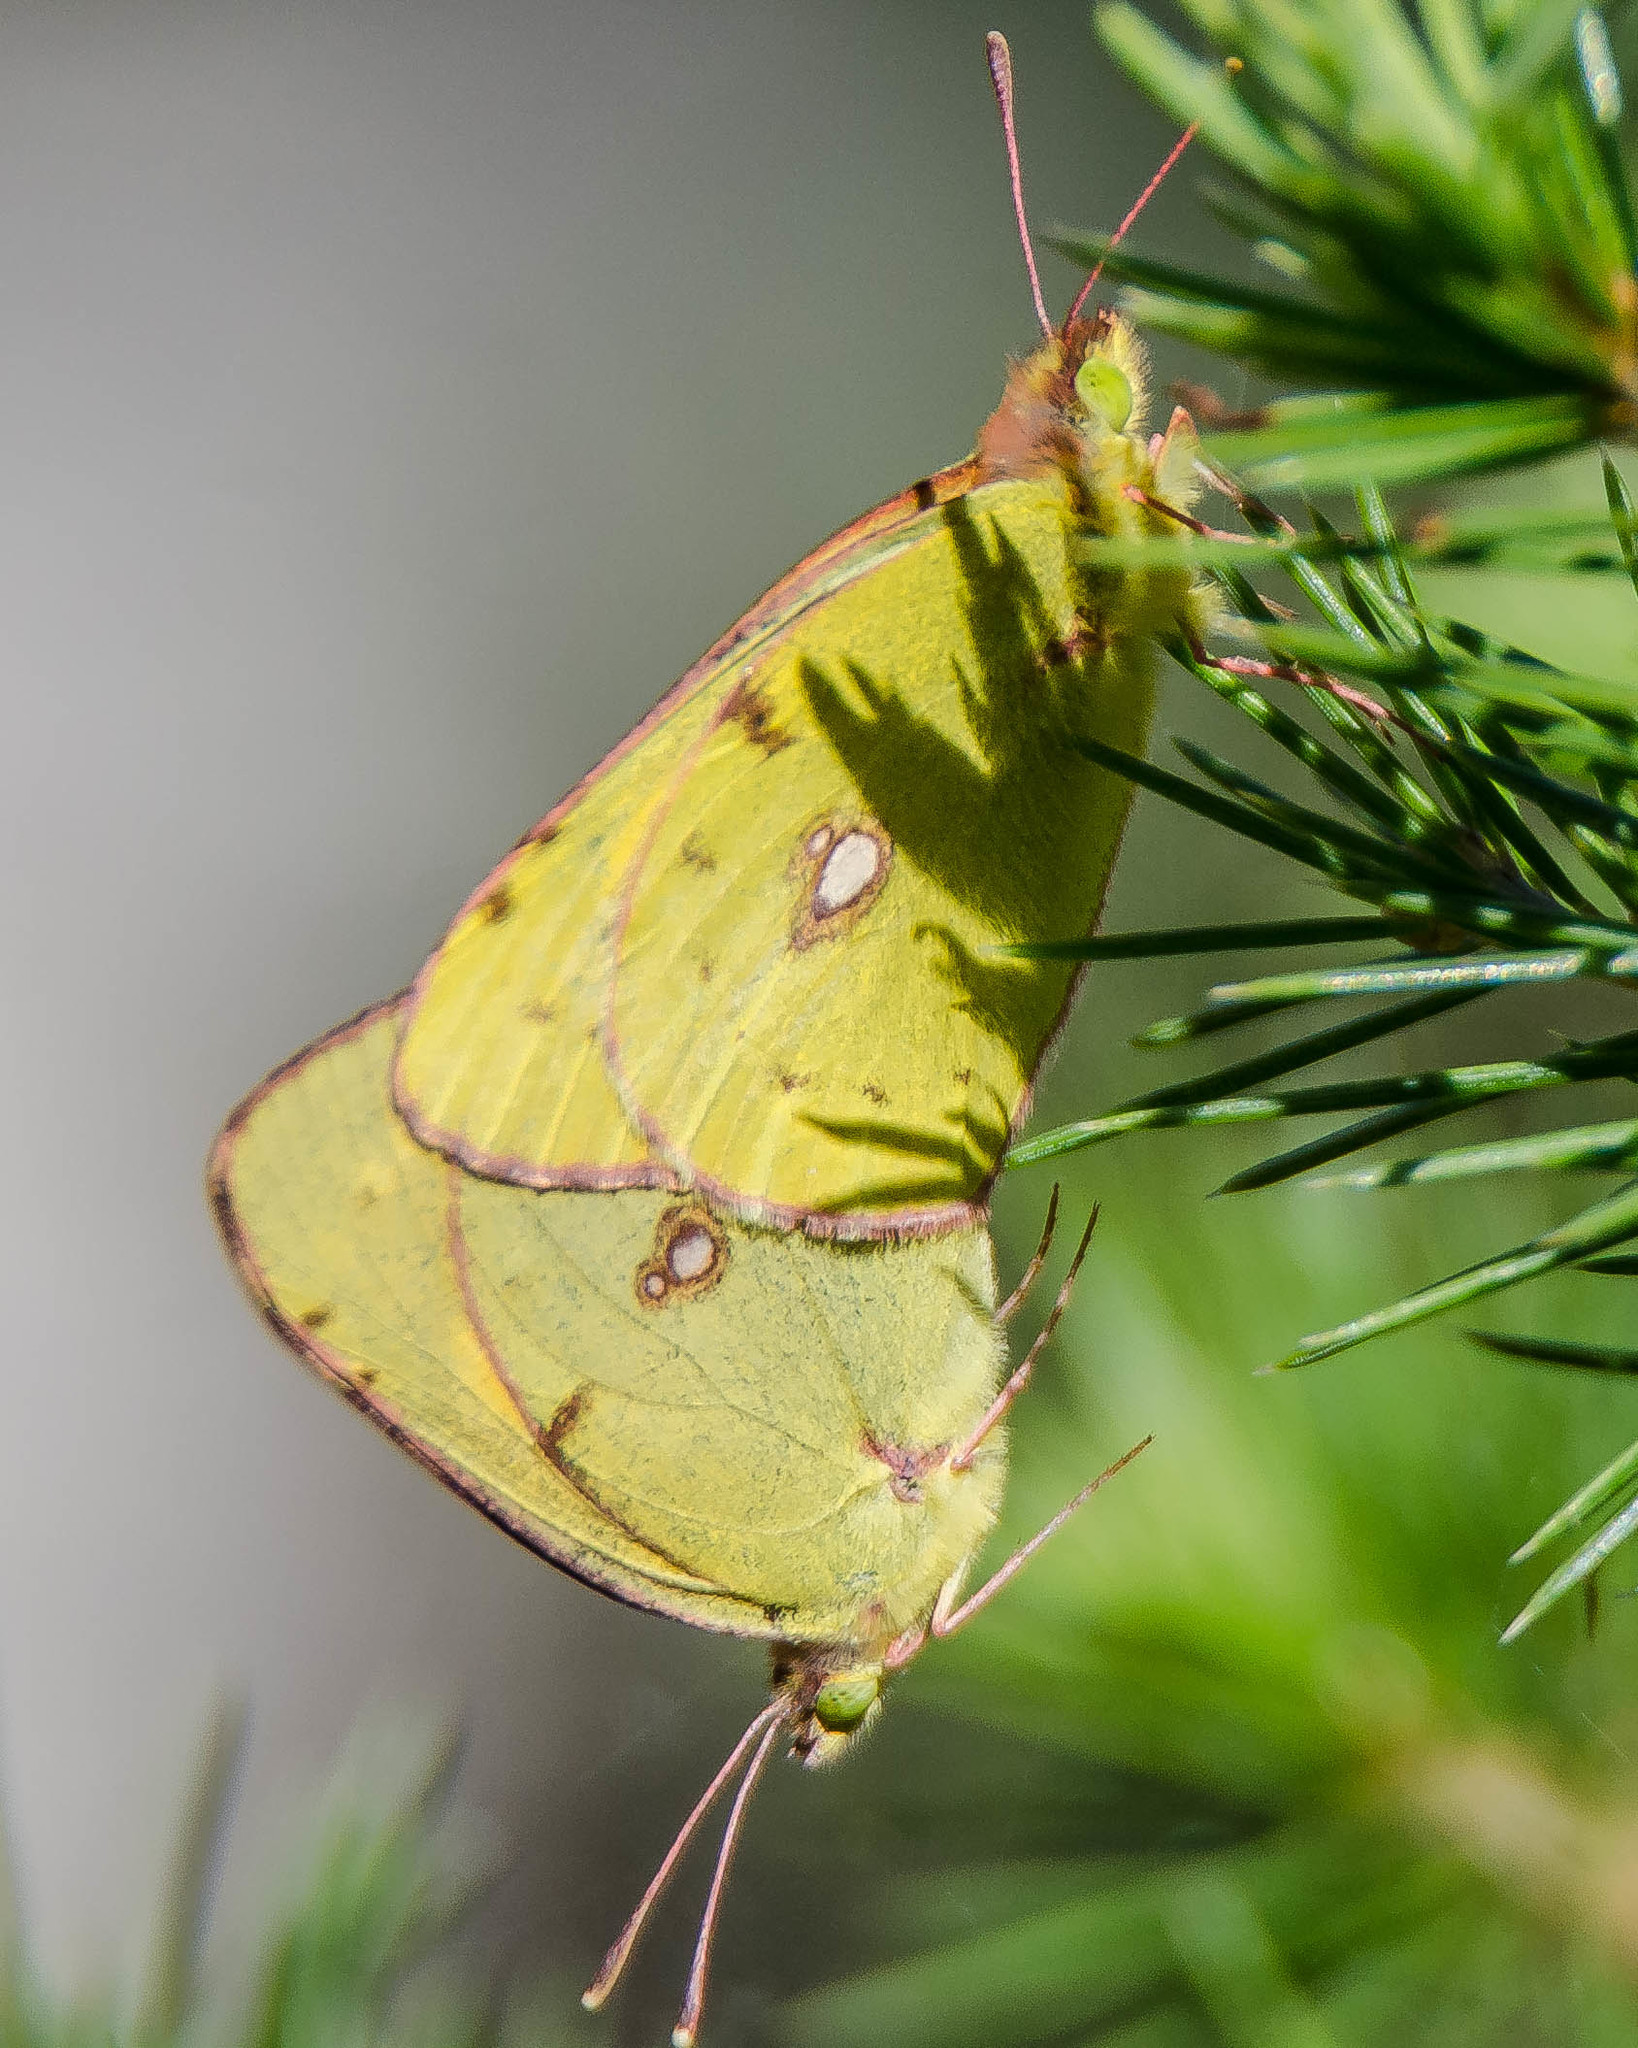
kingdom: Animalia
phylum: Arthropoda
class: Insecta
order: Lepidoptera
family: Pieridae
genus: Colias
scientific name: Colias
